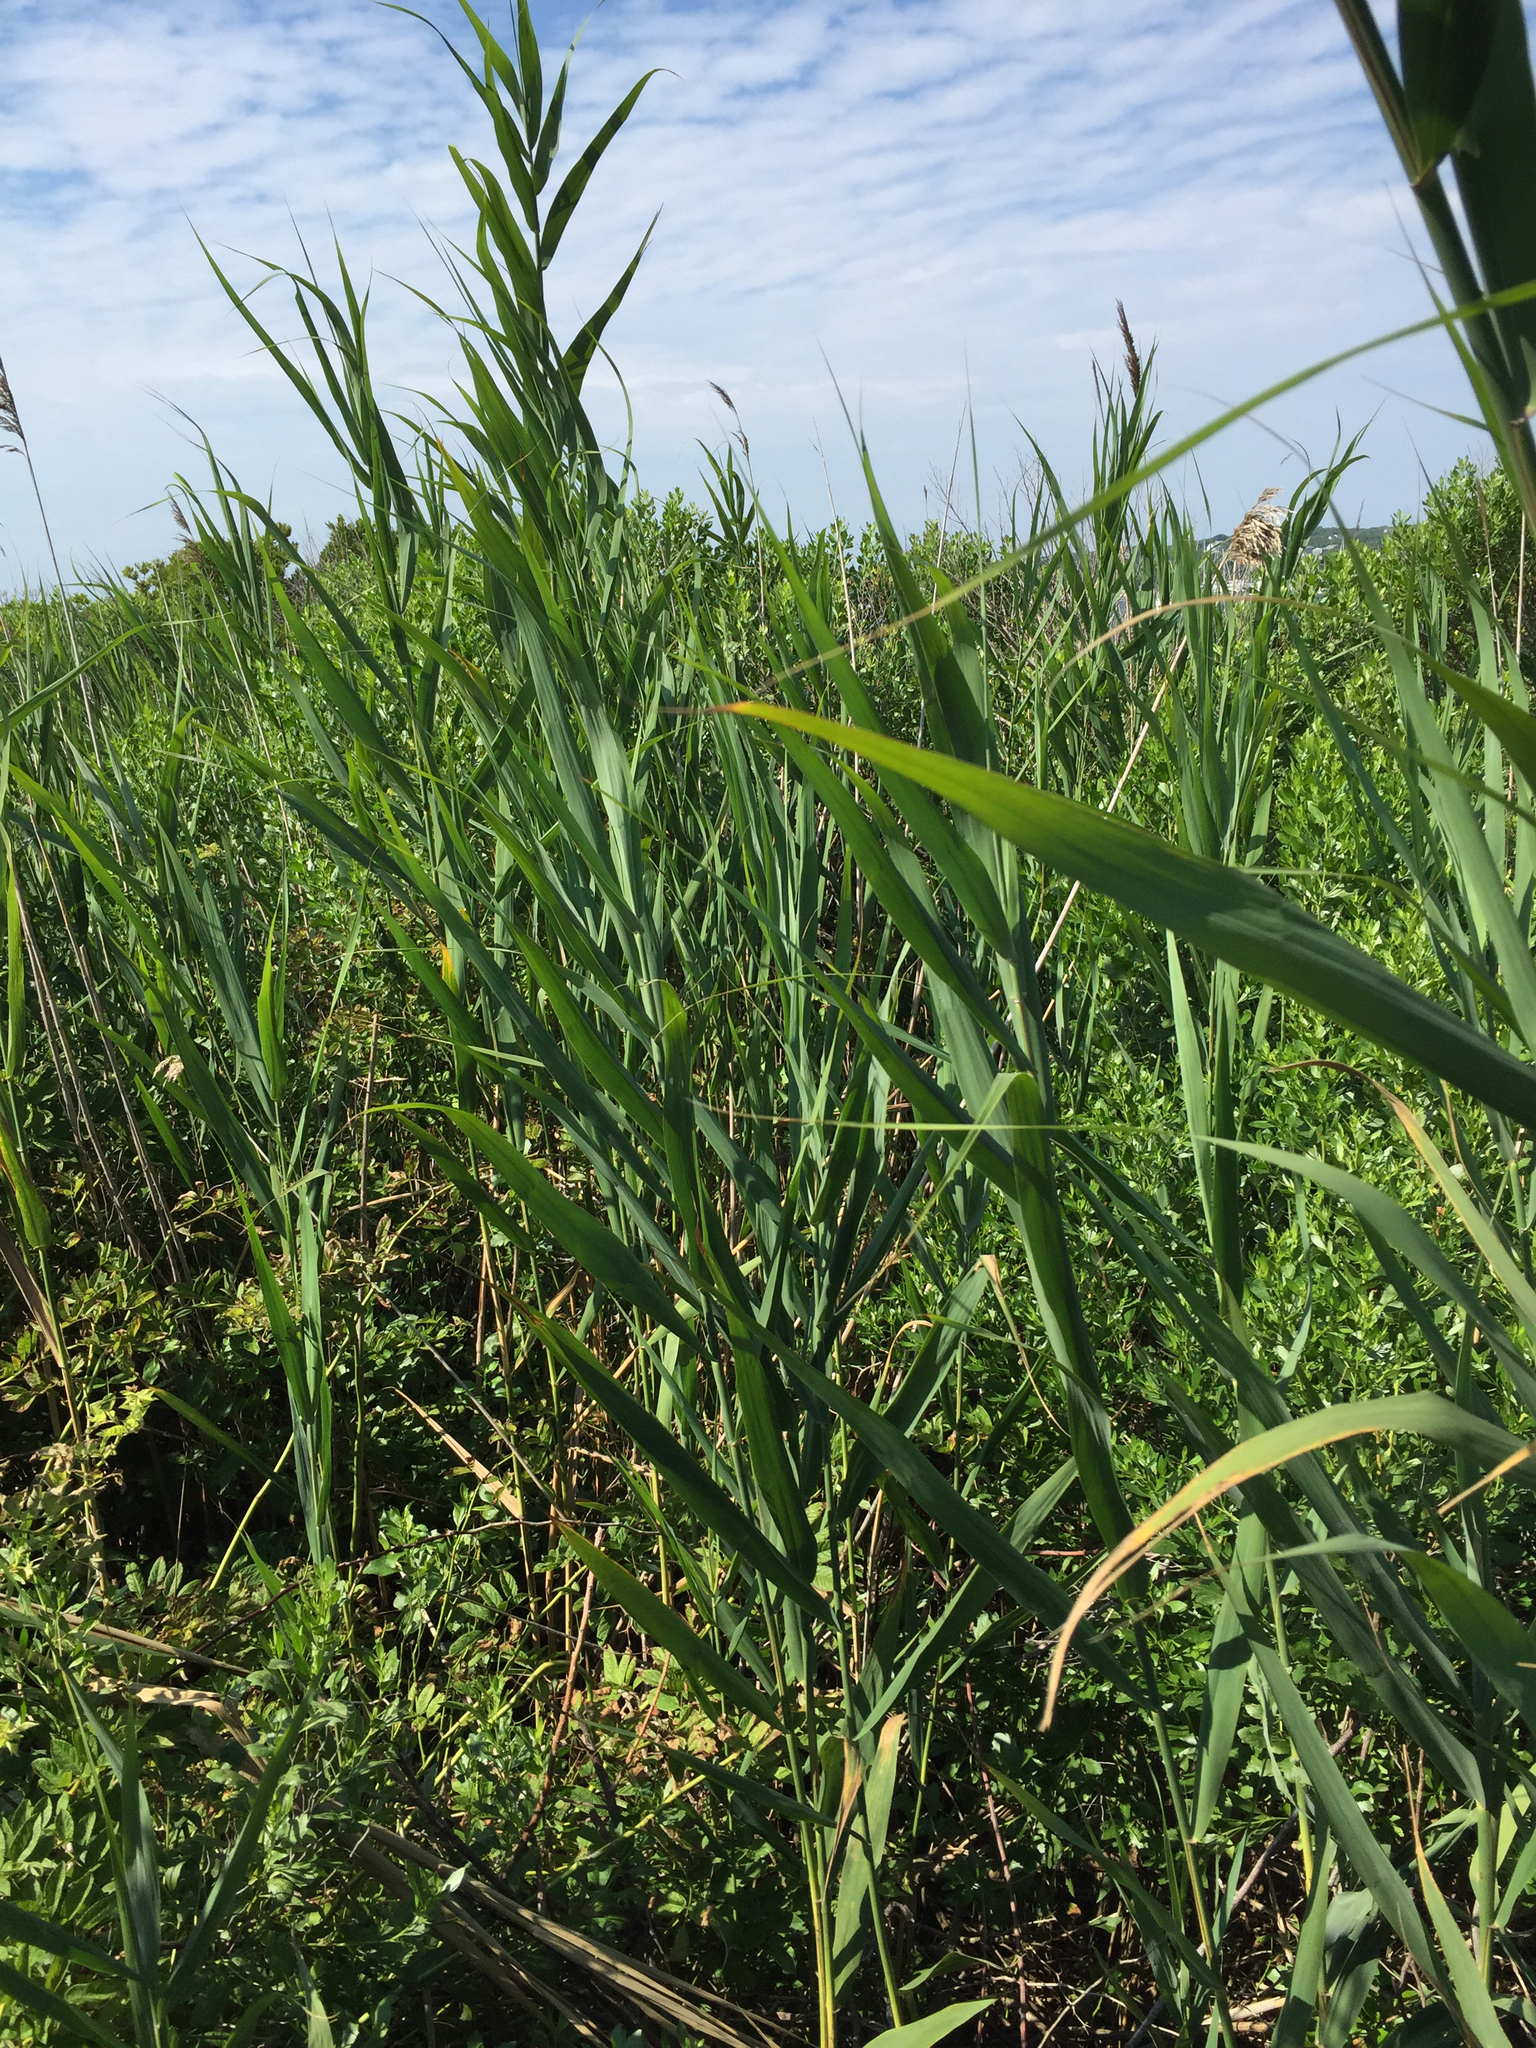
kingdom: Plantae
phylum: Tracheophyta
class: Liliopsida
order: Poales
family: Poaceae
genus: Phragmites
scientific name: Phragmites australis
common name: Common reed
